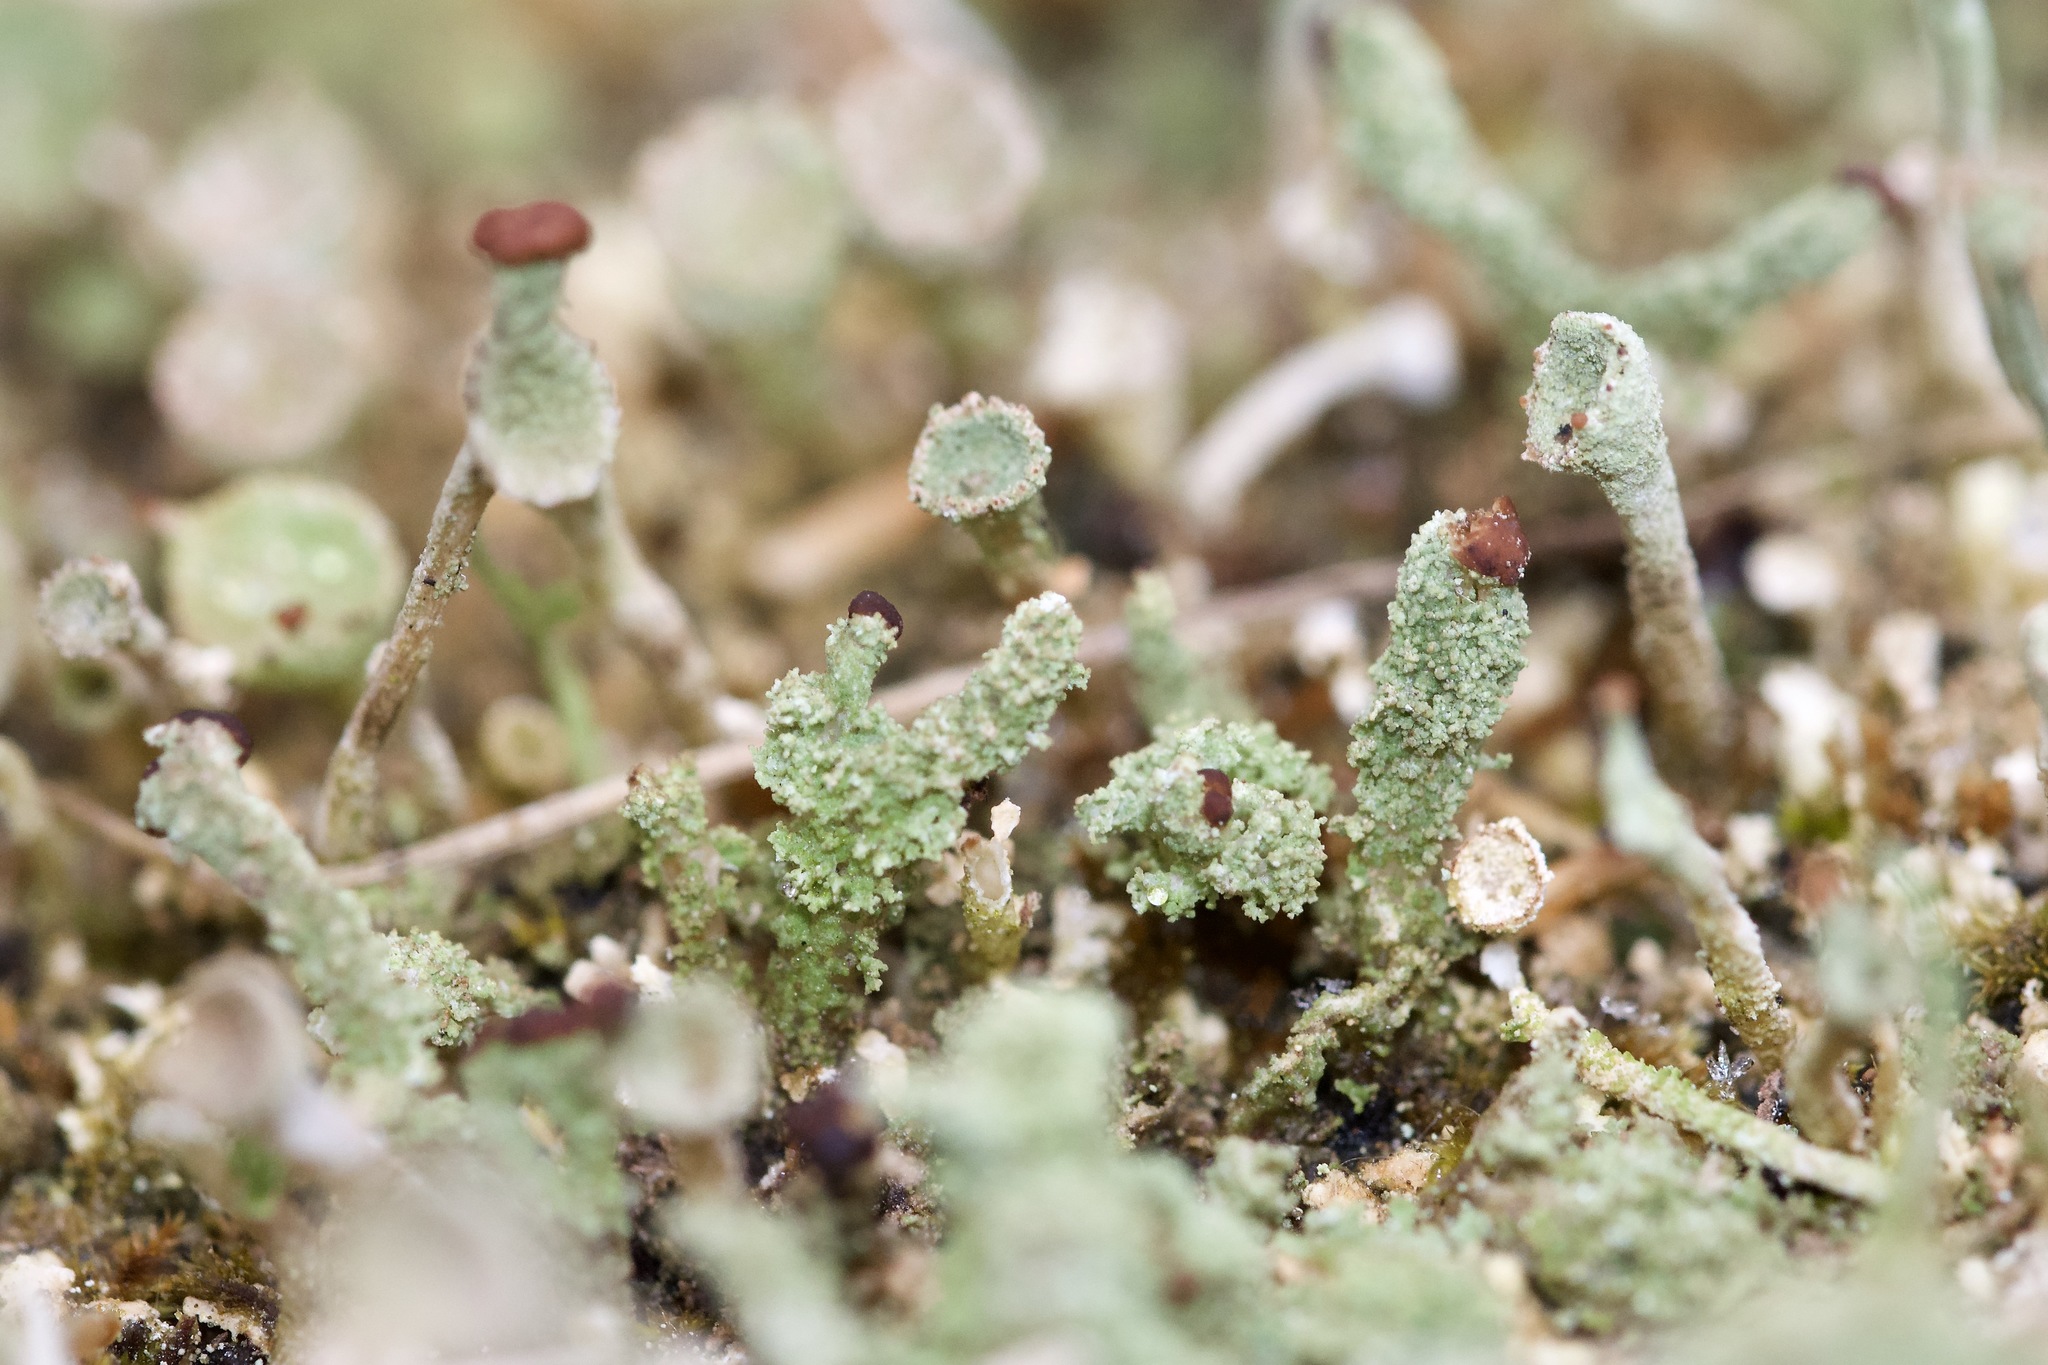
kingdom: Fungi
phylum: Ascomycota
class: Lecanoromycetes
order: Lecanorales
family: Cladoniaceae
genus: Cladonia
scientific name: Cladonia parasitica
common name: Fence-rail clad lichen
